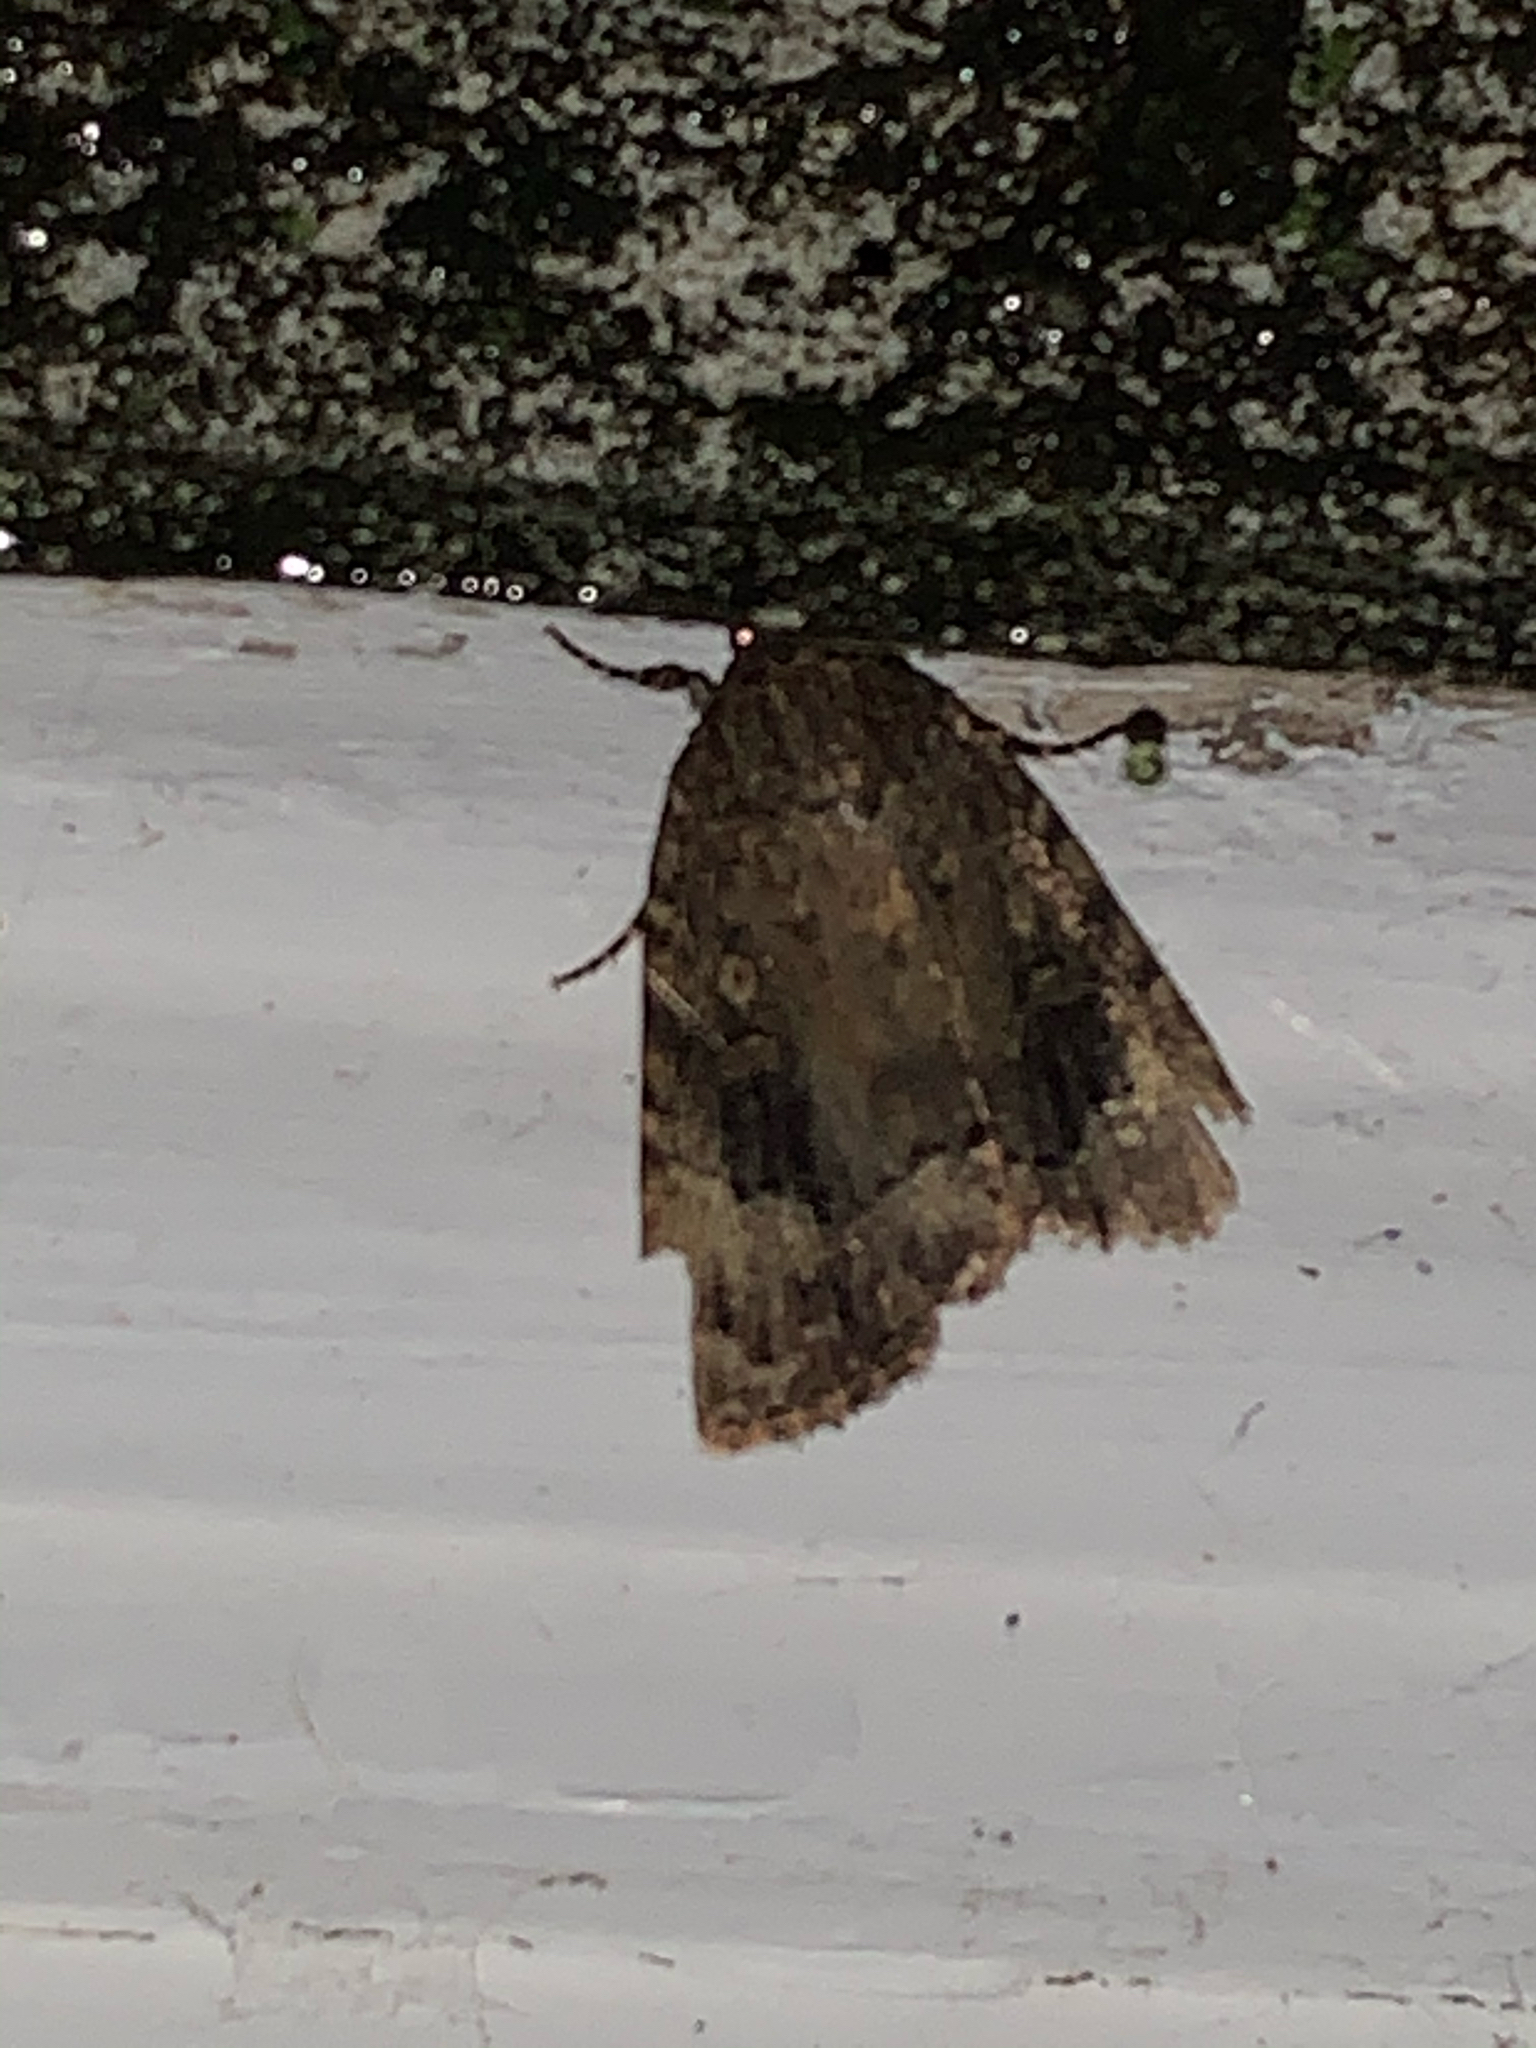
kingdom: Animalia
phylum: Arthropoda
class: Insecta
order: Lepidoptera
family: Noctuidae
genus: Amphipyra
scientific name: Amphipyra pyramidoides
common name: American copper underwing
